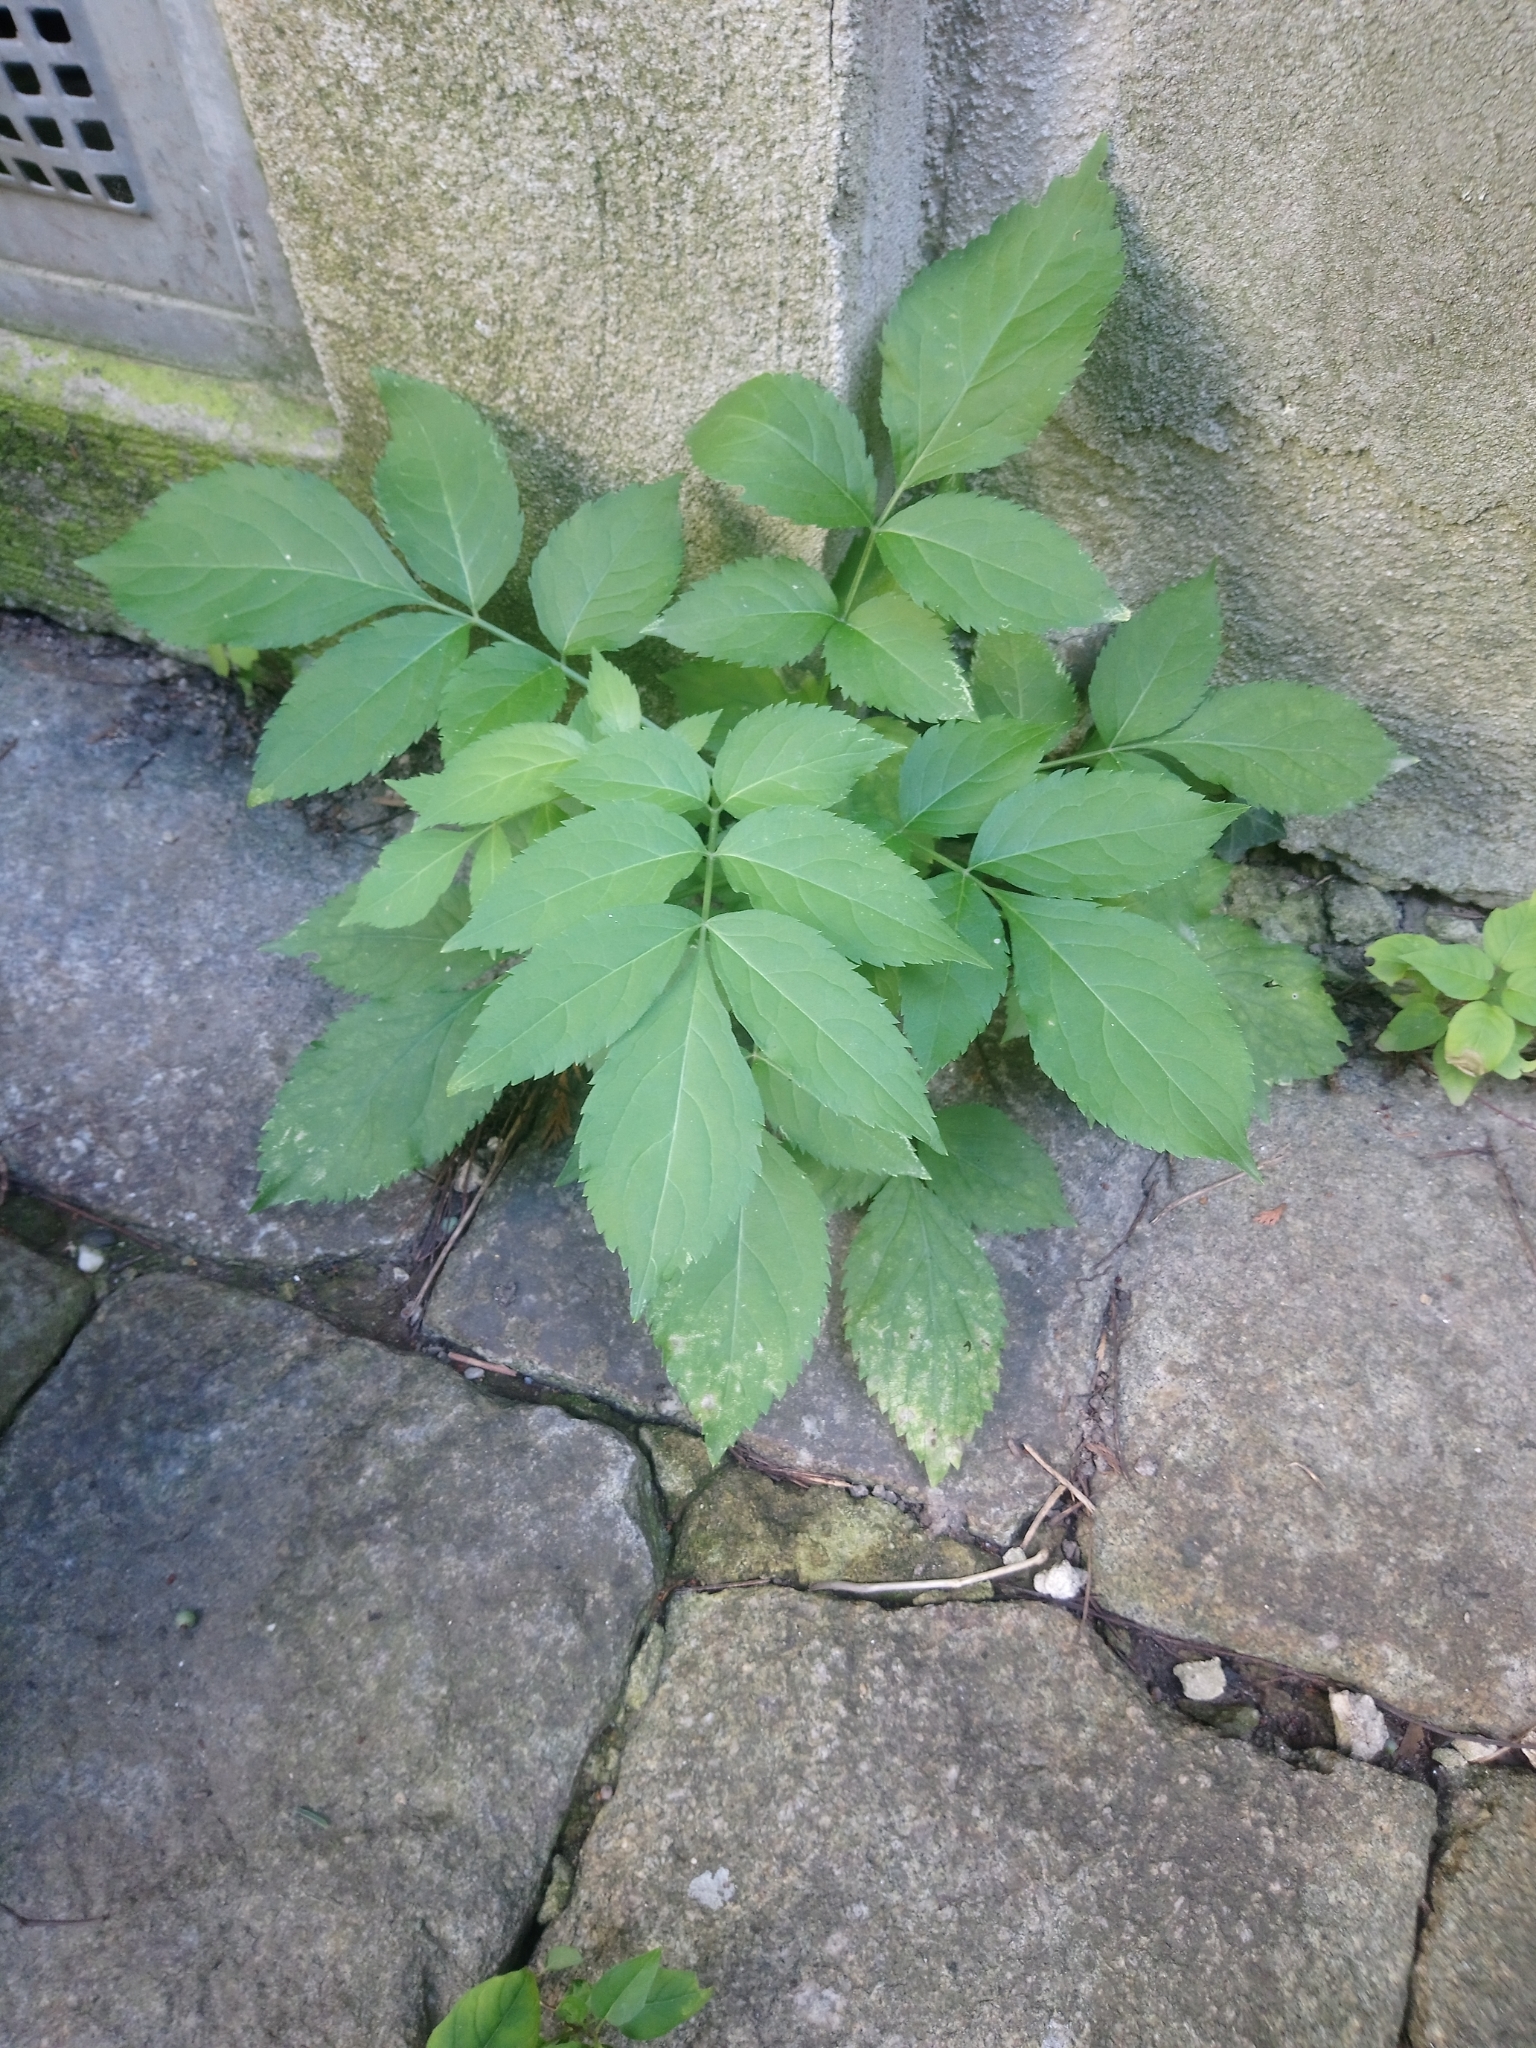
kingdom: Plantae
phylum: Tracheophyta
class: Magnoliopsida
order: Dipsacales
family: Viburnaceae
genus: Sambucus
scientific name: Sambucus nigra
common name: Elder
